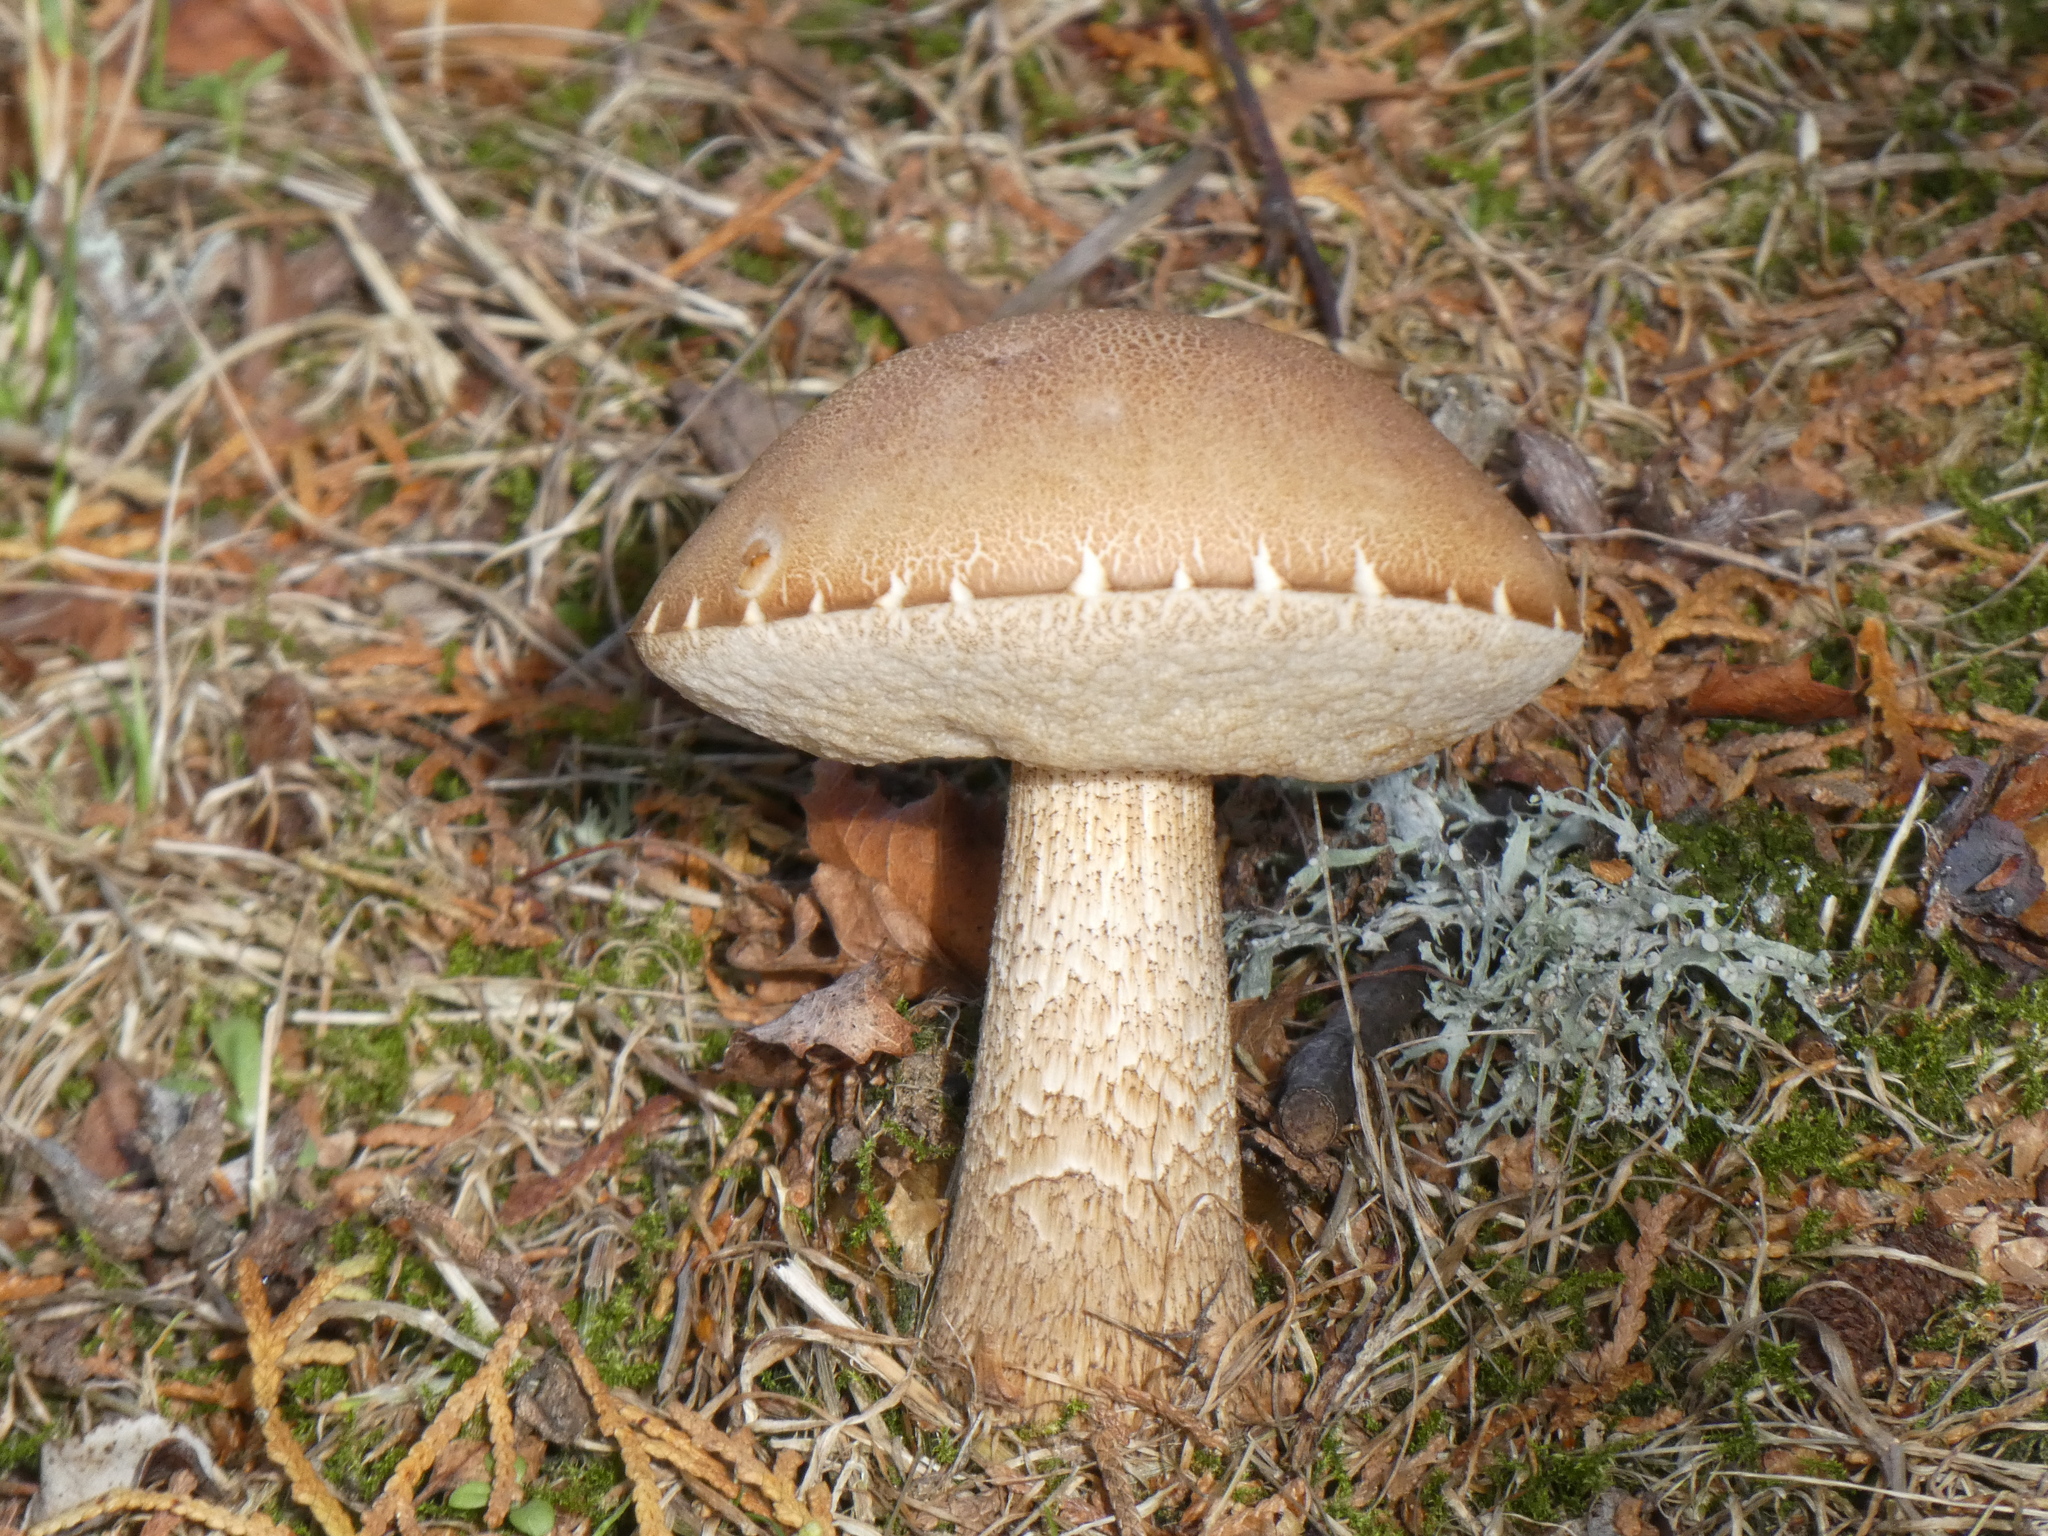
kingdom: Fungi
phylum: Basidiomycota
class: Agaricomycetes
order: Boletales
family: Boletaceae
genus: Leccinum
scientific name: Leccinum scabrum
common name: Blushing bolete
